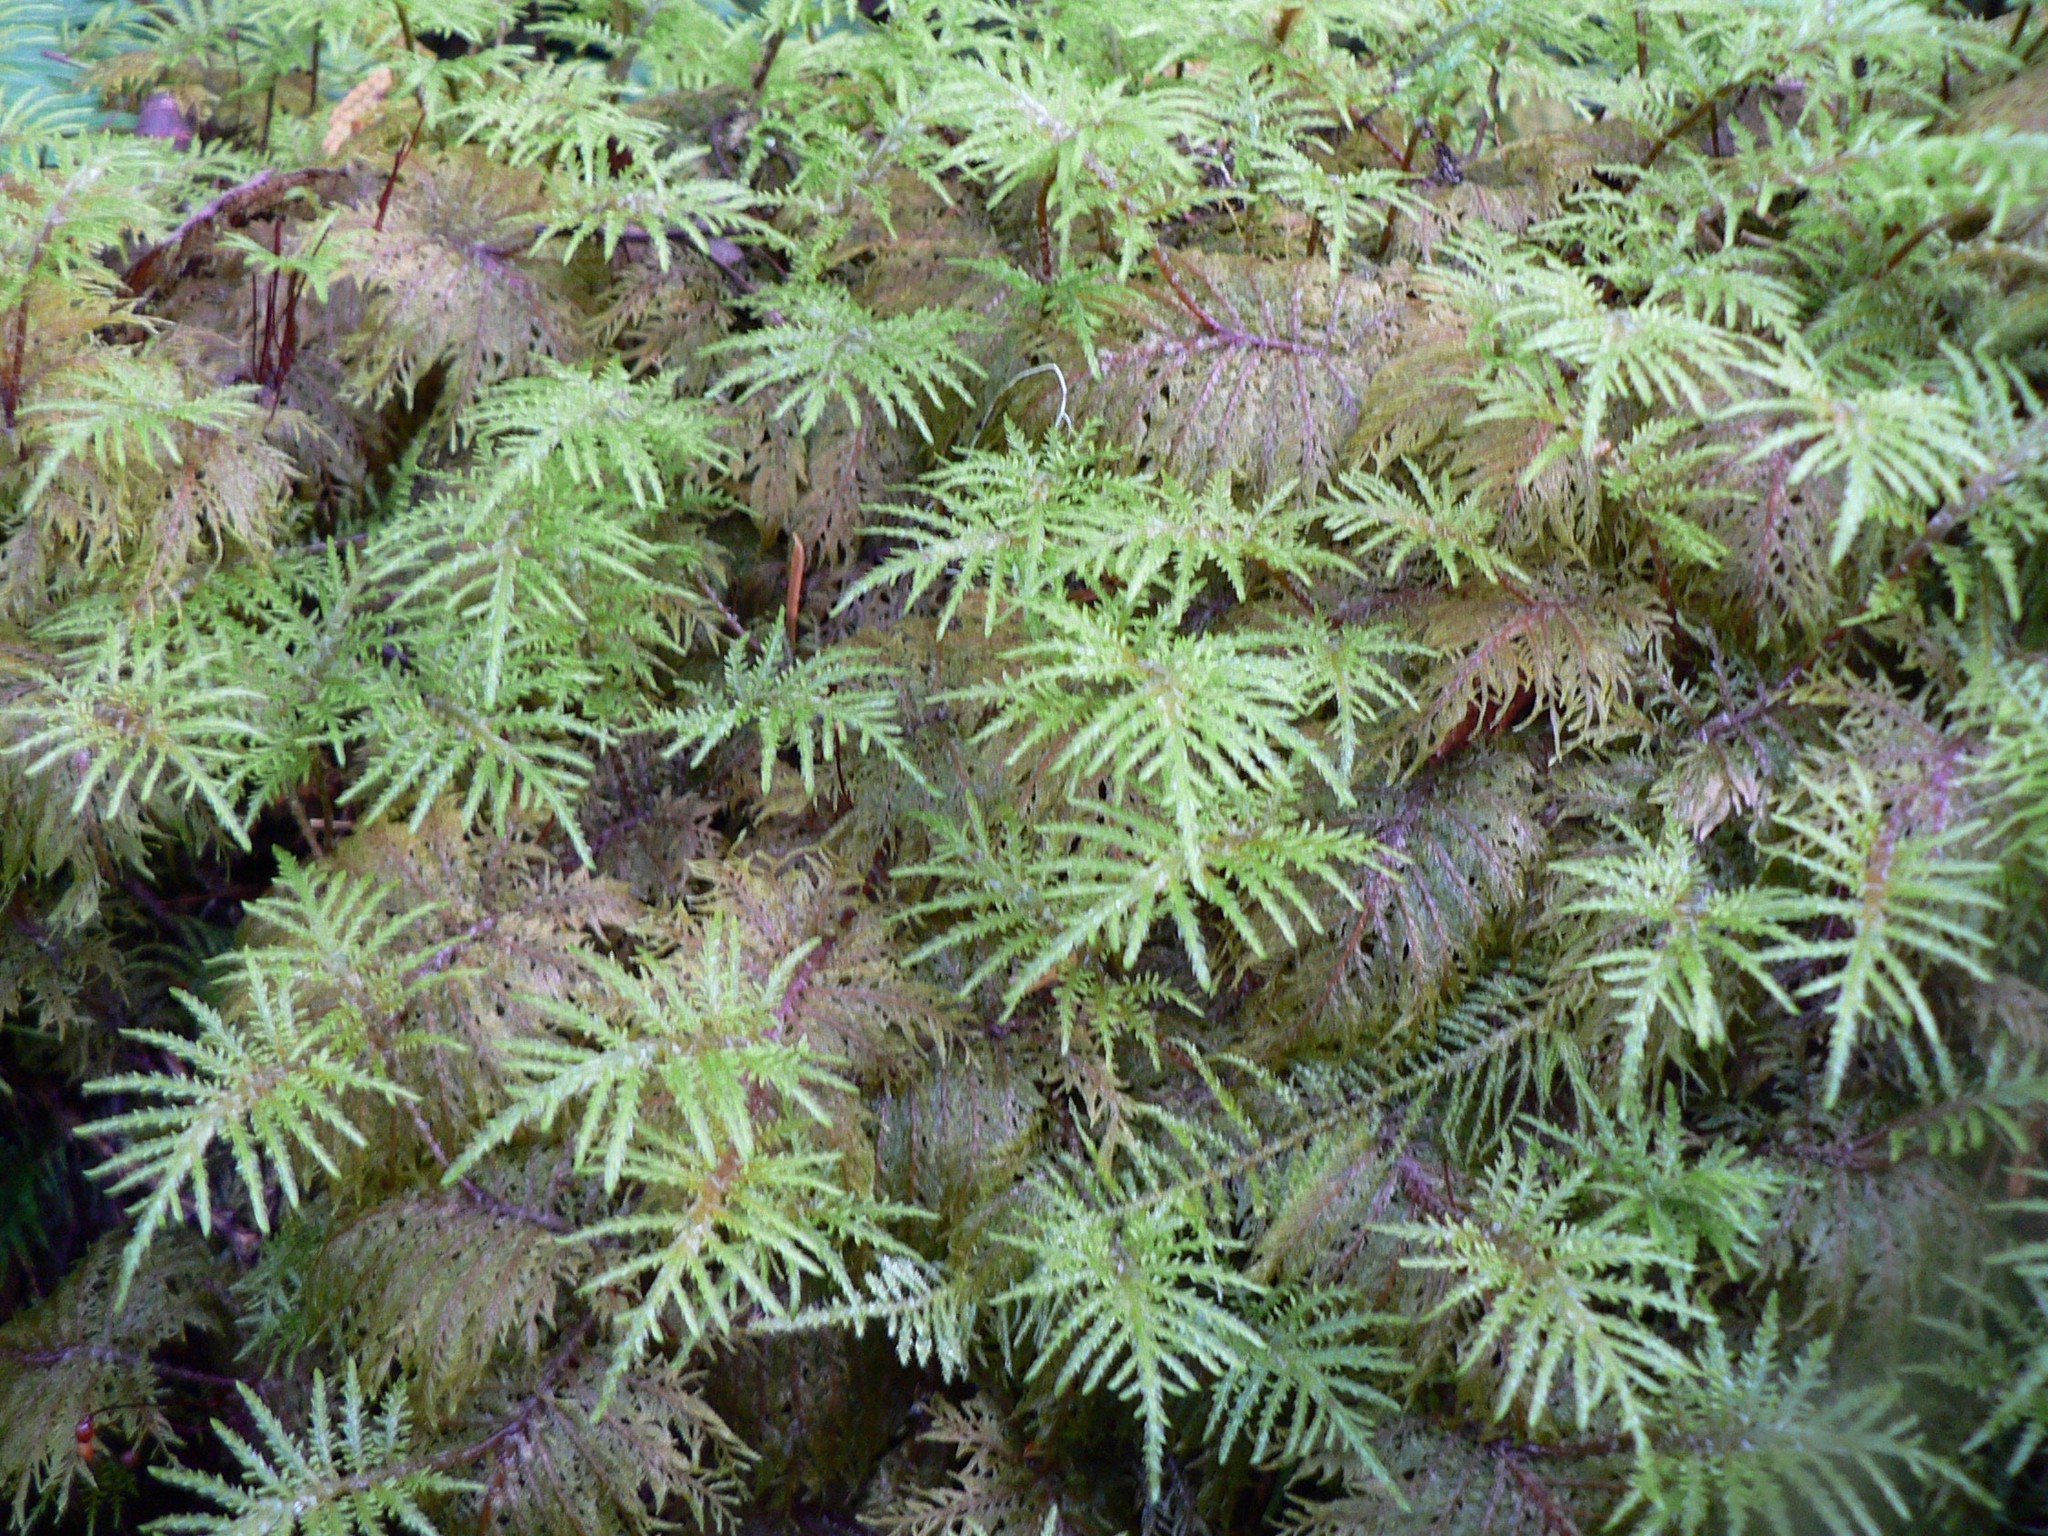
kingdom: Plantae
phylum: Bryophyta
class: Bryopsida
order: Hypnales
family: Hylocomiaceae
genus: Hylocomium
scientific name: Hylocomium splendens
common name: Stairstep moss
